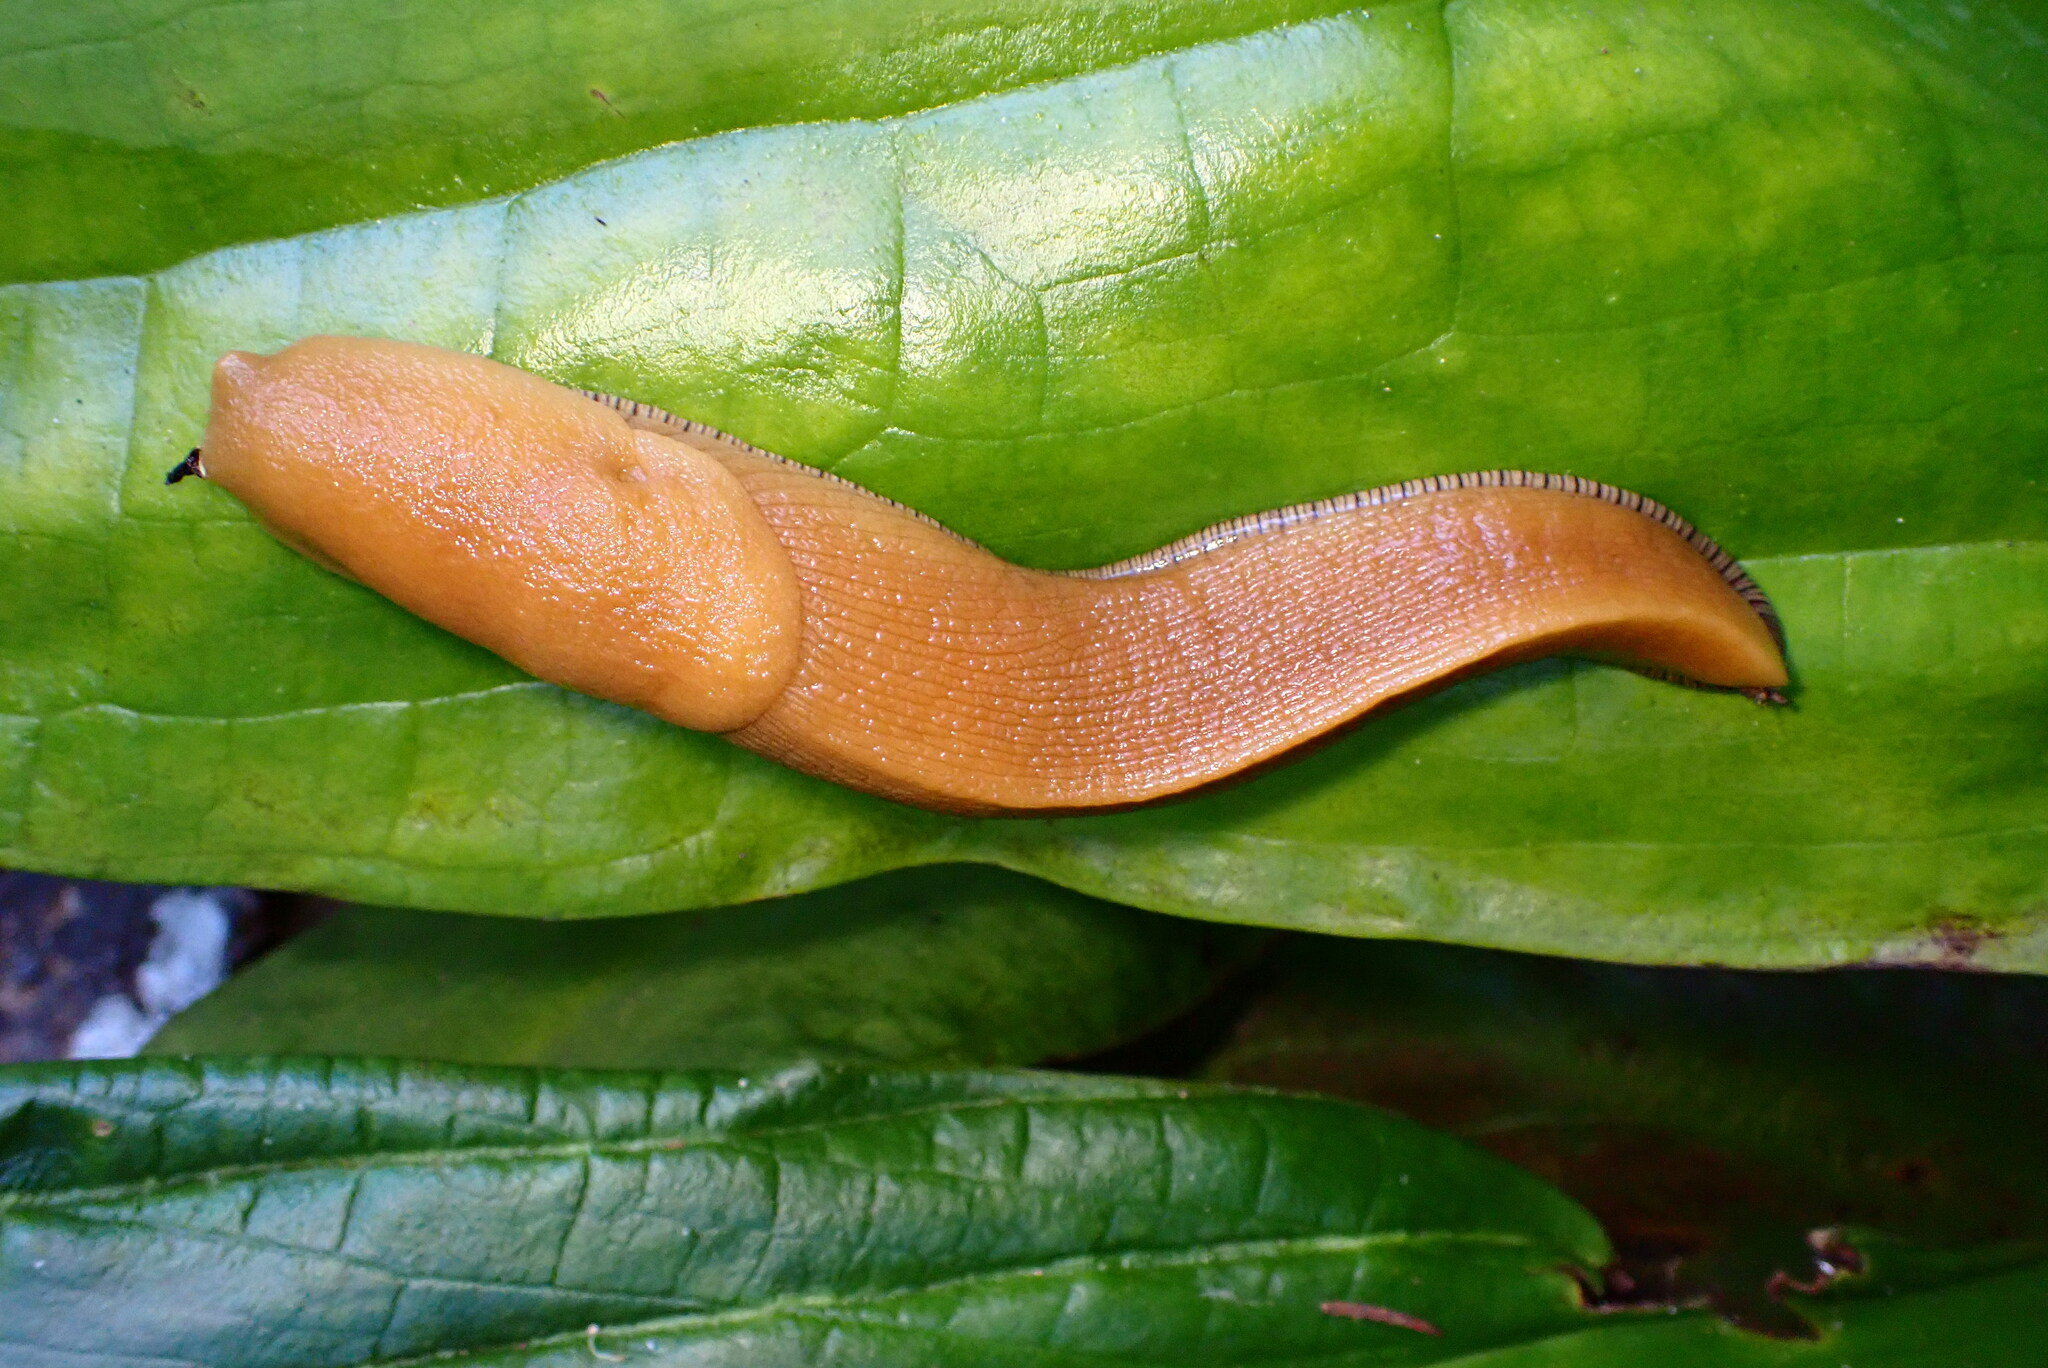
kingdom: Animalia
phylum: Mollusca
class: Gastropoda
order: Stylommatophora
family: Ariolimacidae
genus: Ariolimax
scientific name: Ariolimax buttoni
